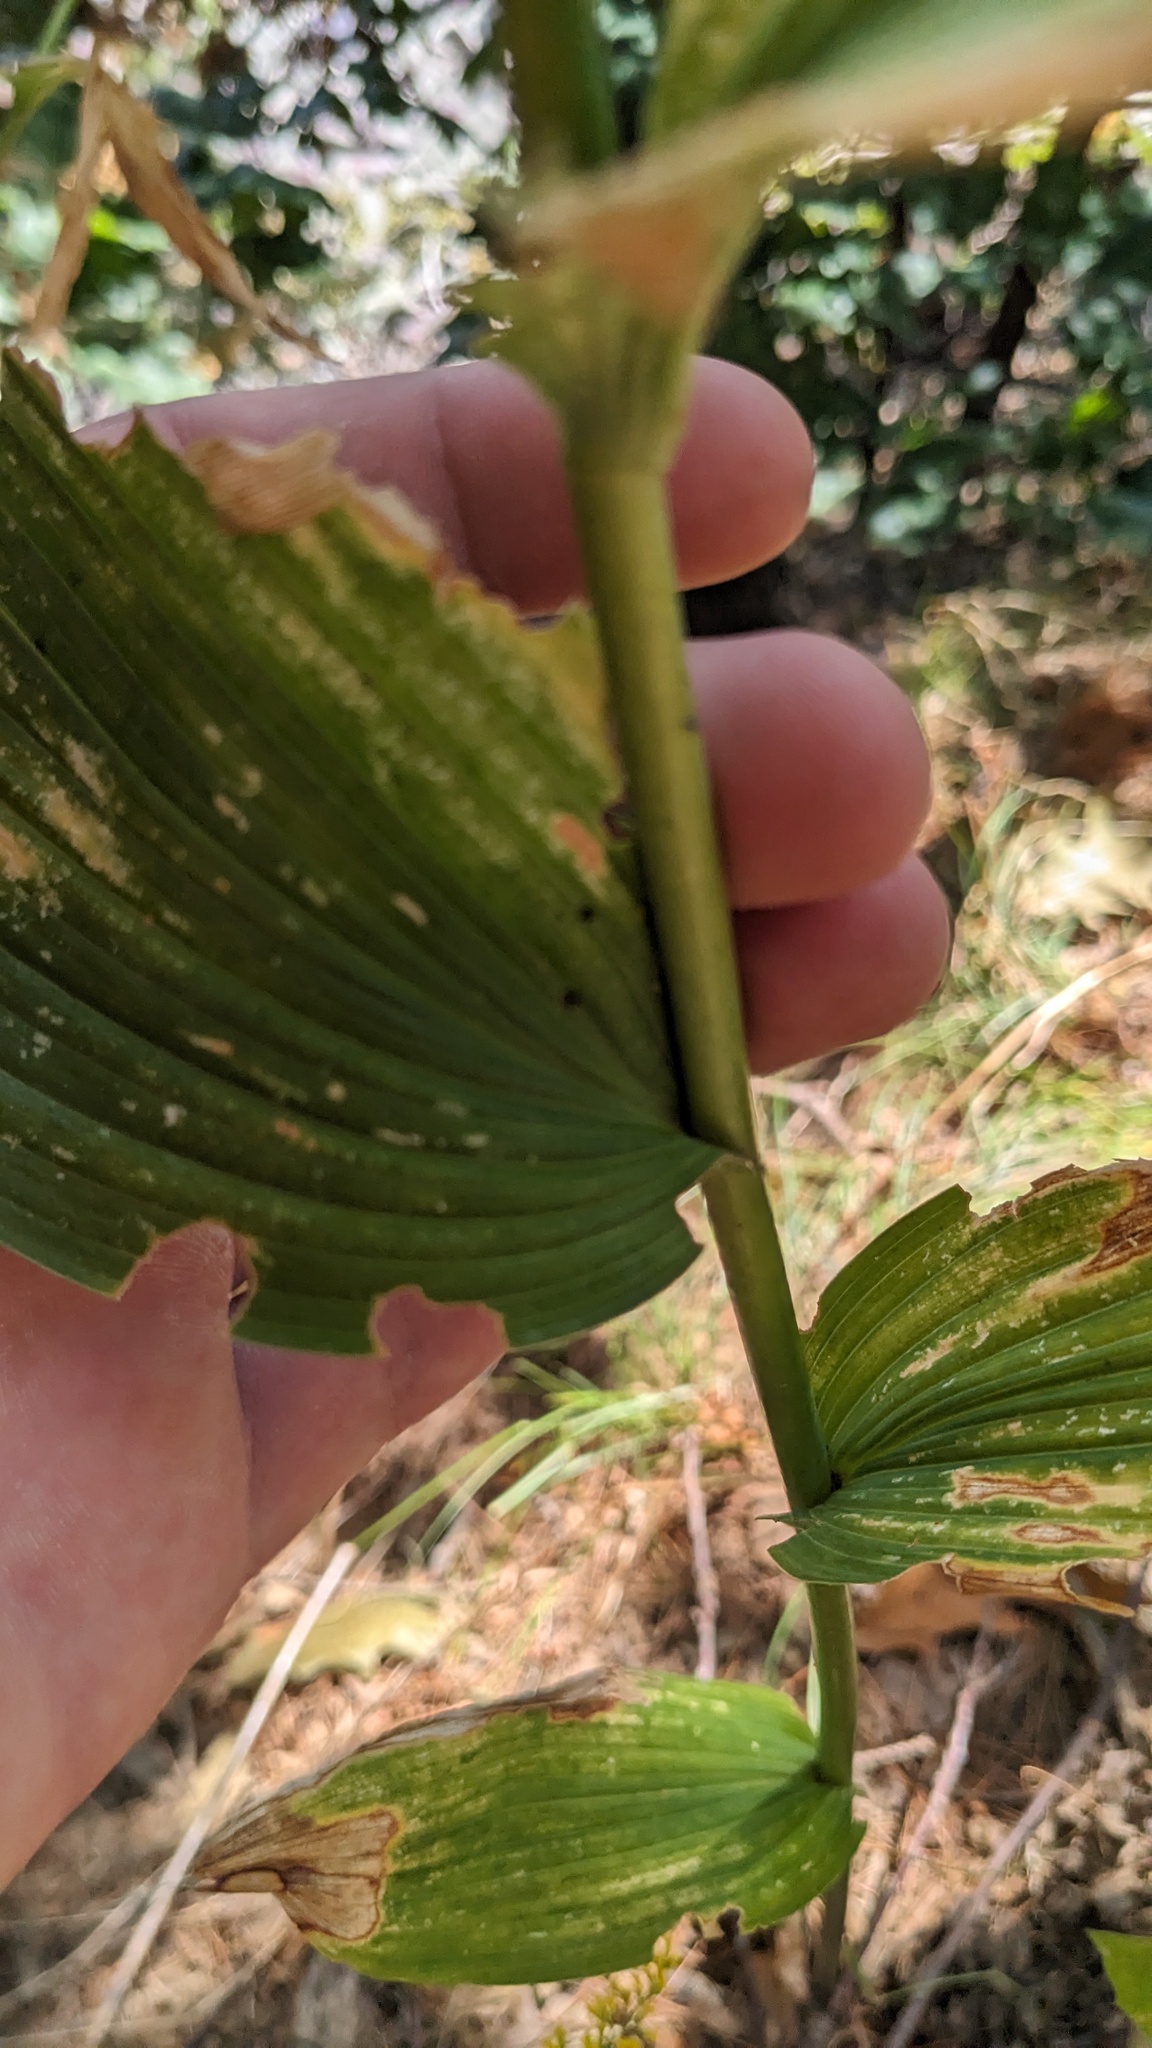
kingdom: Plantae
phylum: Tracheophyta
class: Liliopsida
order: Asparagales
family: Asparagaceae
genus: Polygonatum
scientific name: Polygonatum biflorum
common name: American solomon's-seal
